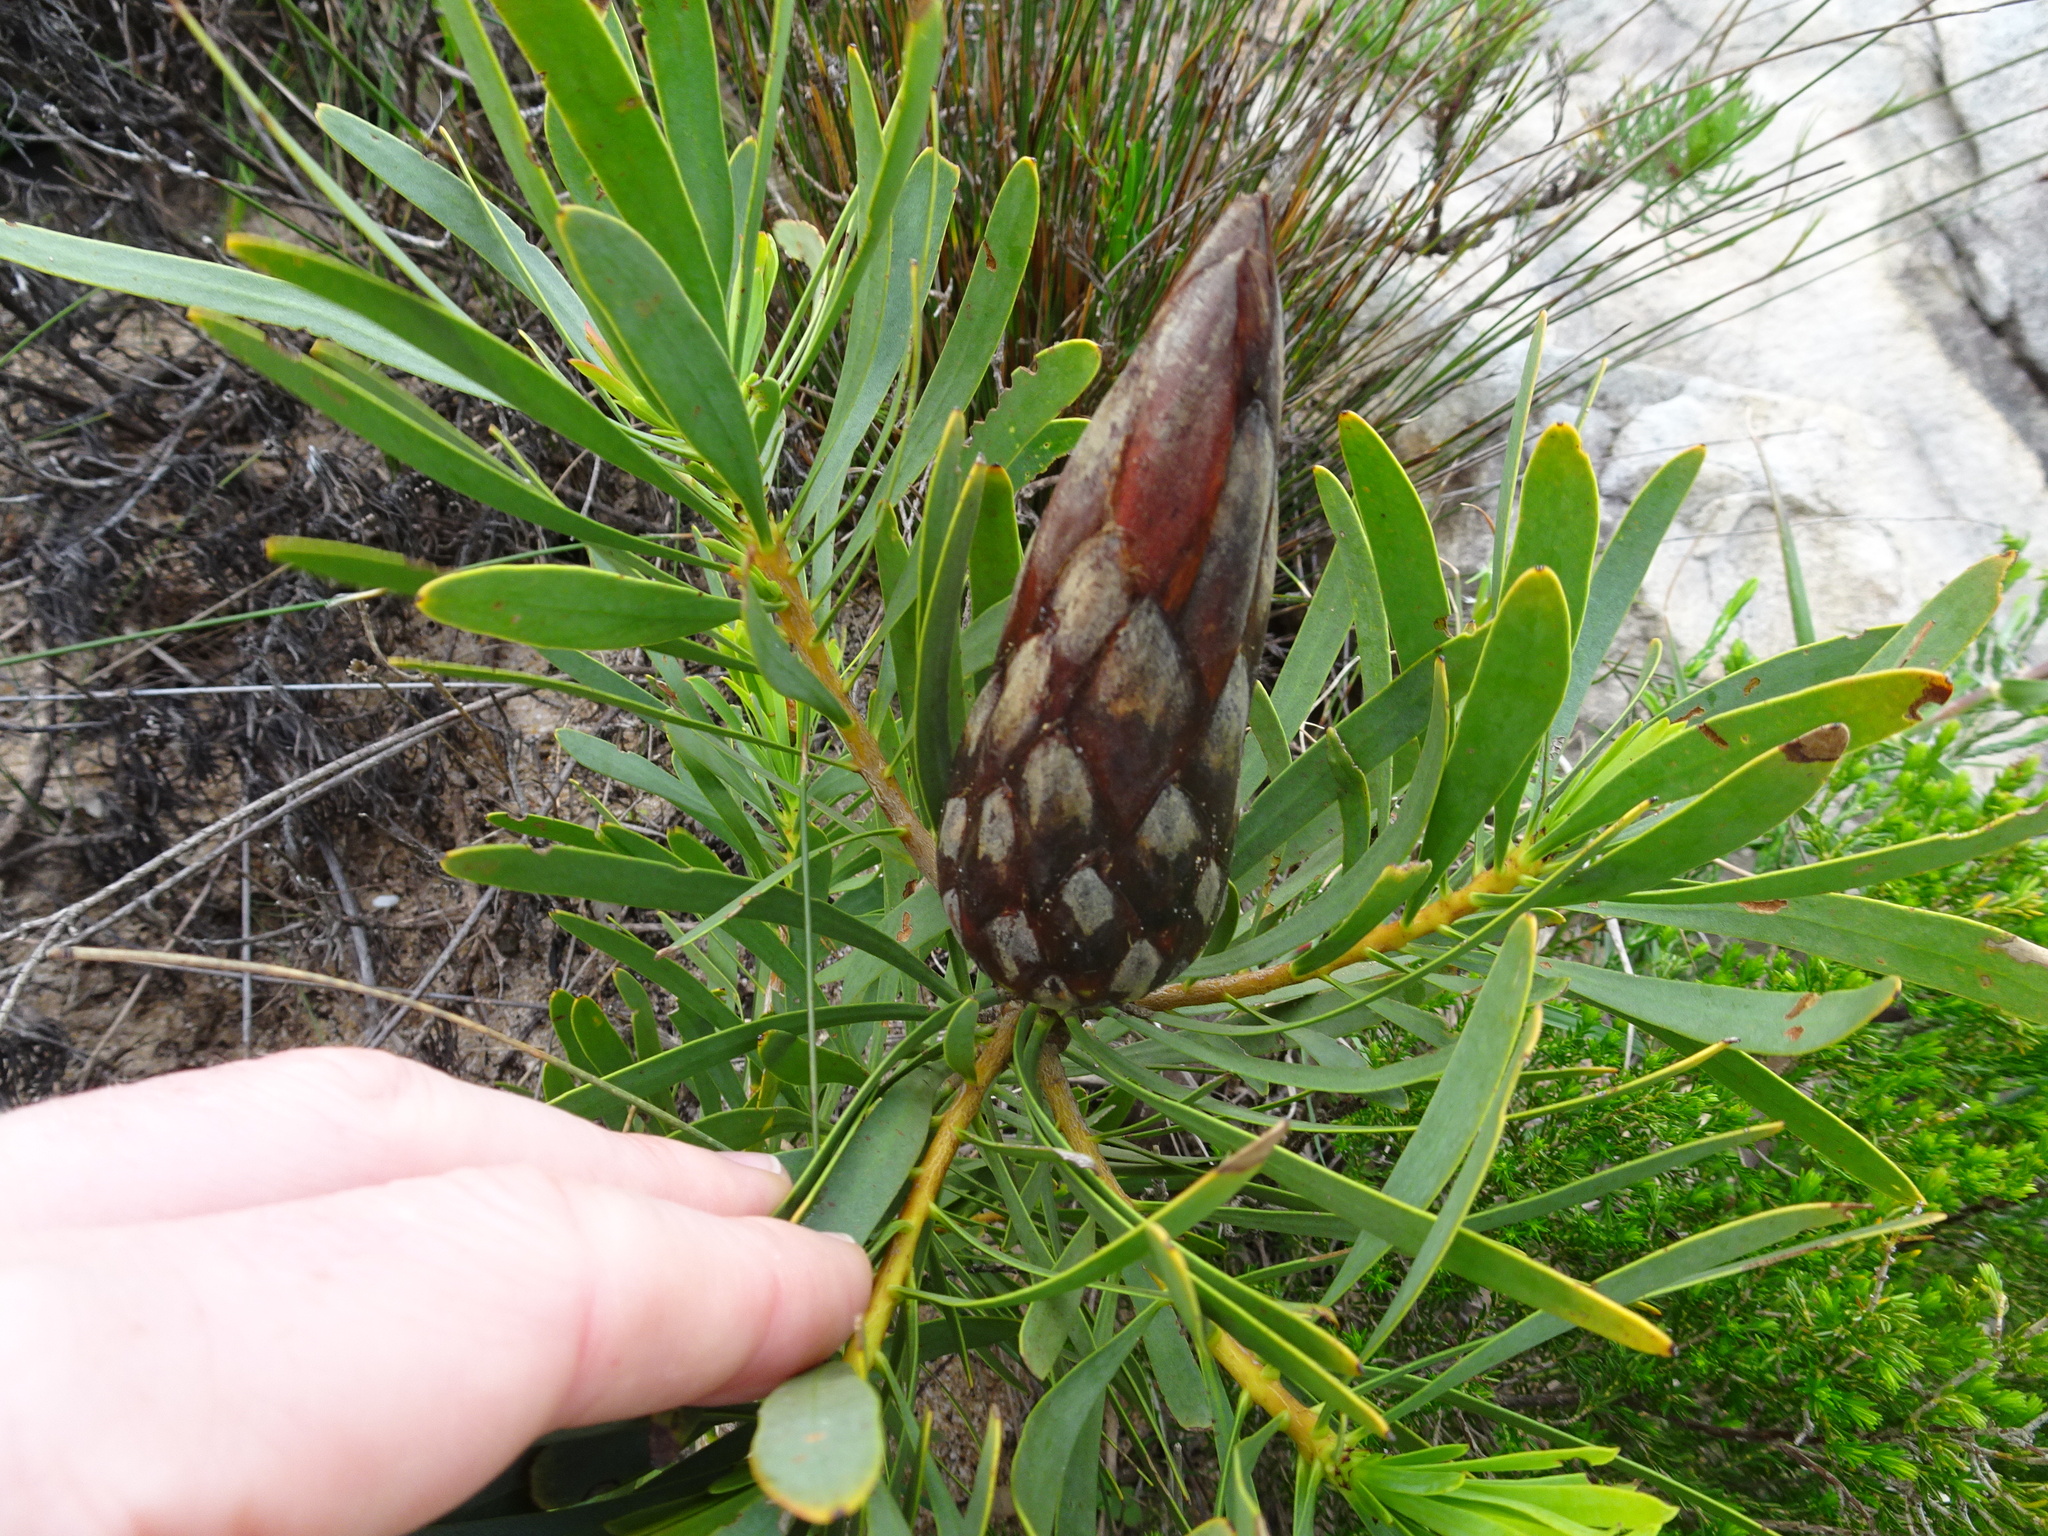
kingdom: Plantae
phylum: Tracheophyta
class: Magnoliopsida
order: Proteales
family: Proteaceae
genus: Protea
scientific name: Protea repens
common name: Sugarbush
